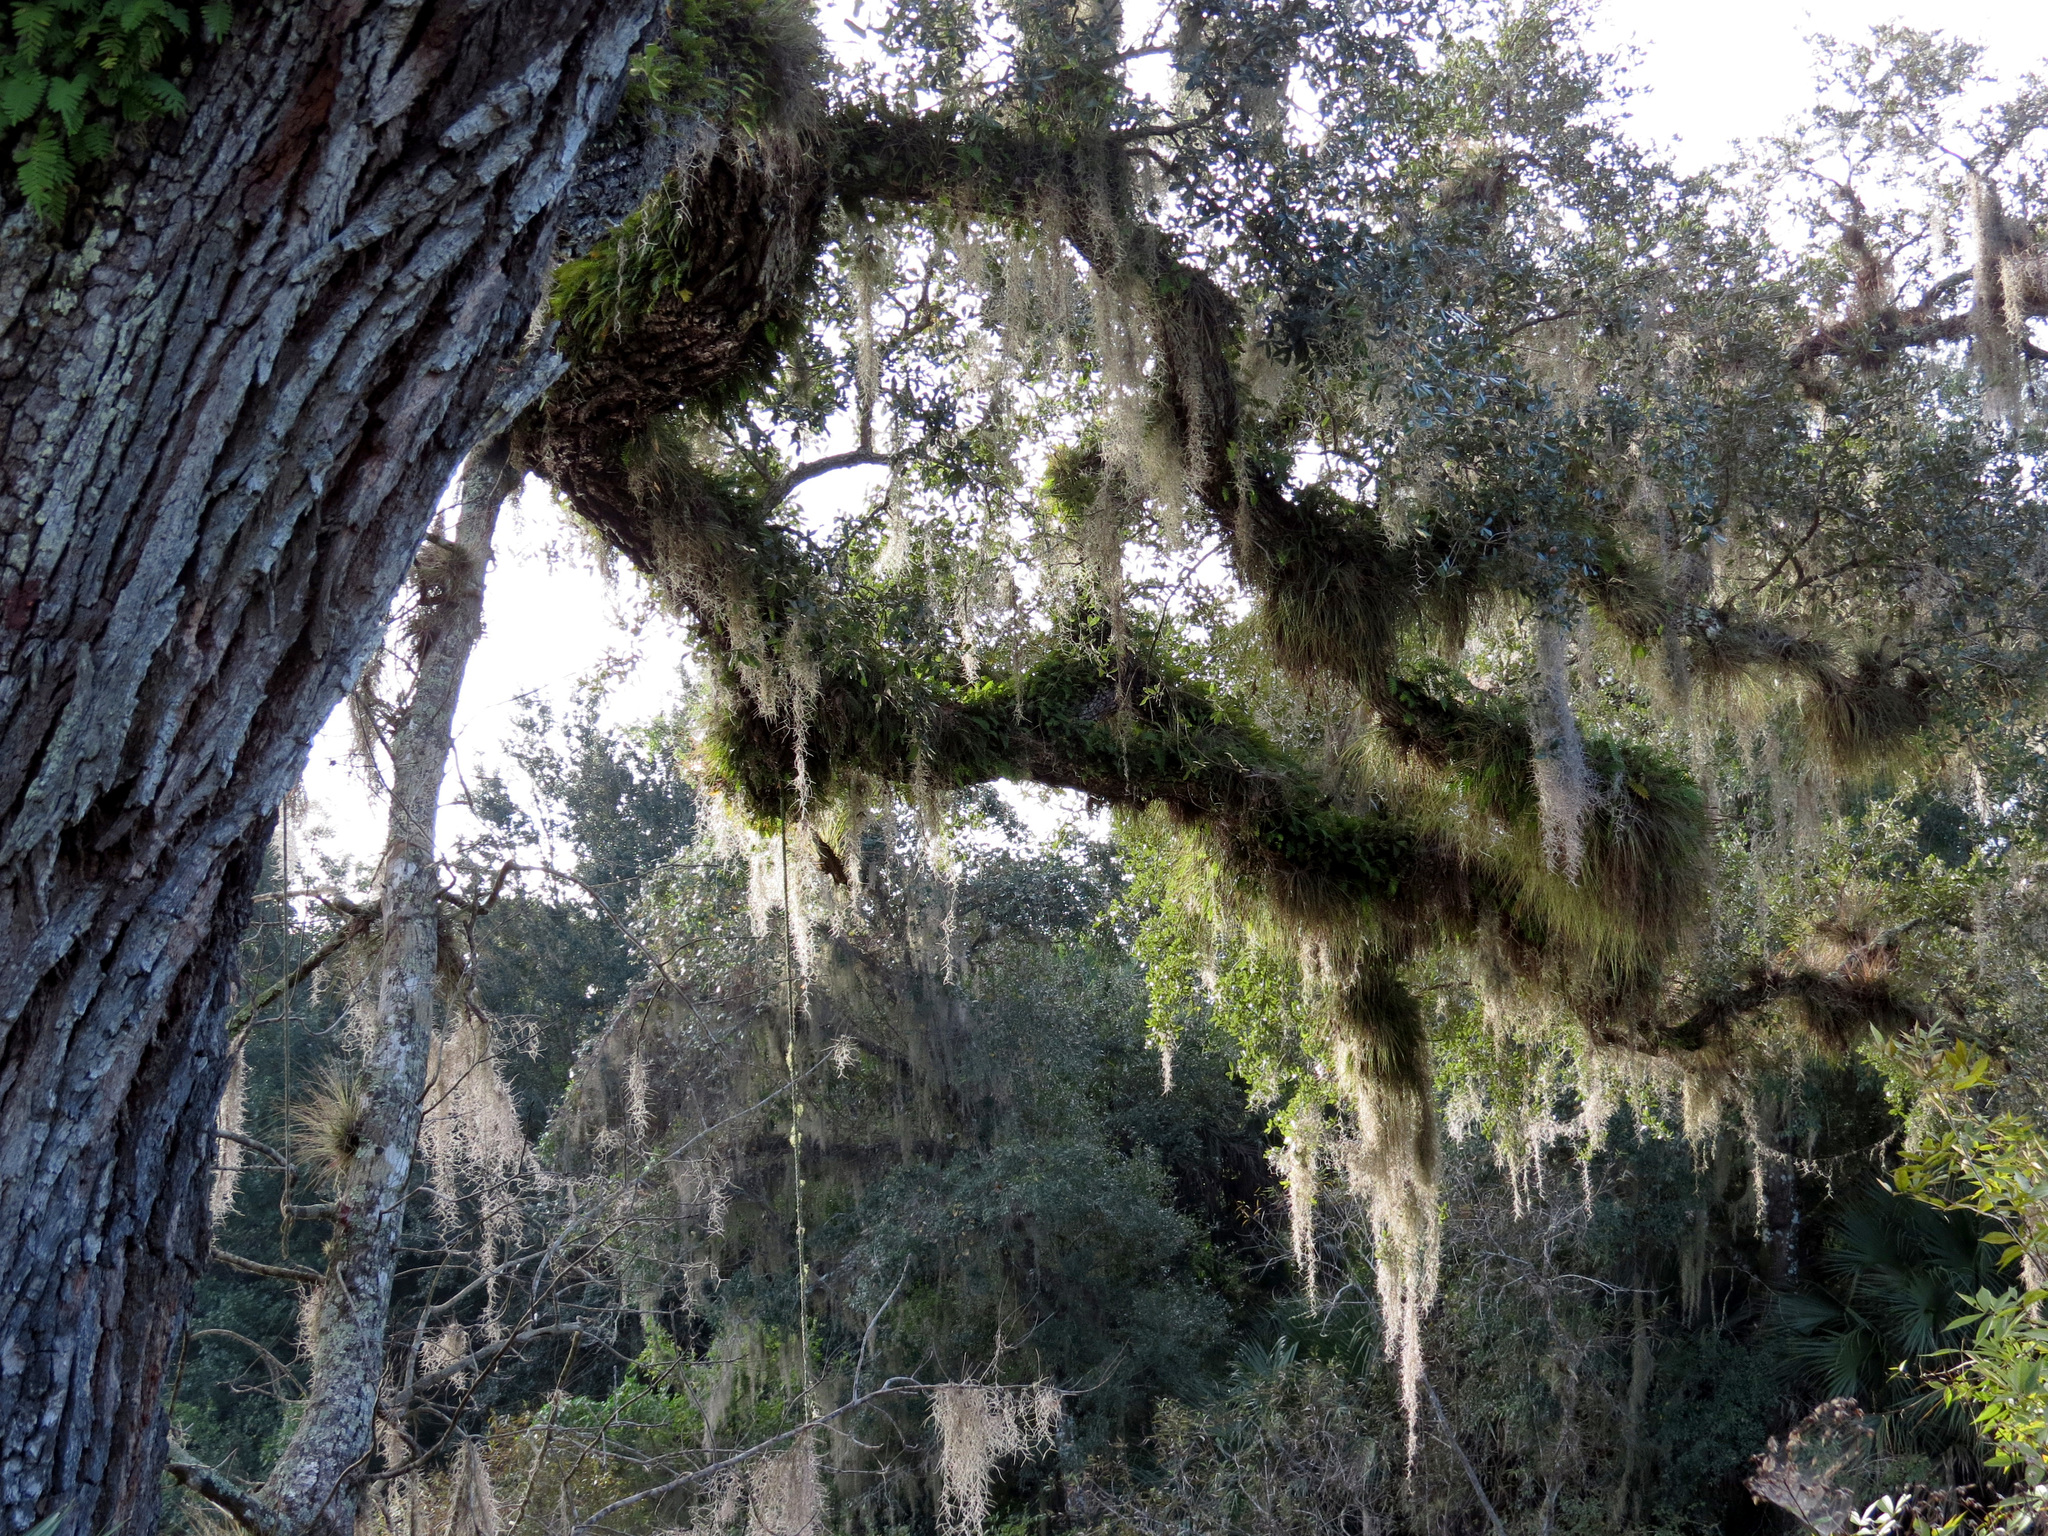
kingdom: Plantae
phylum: Tracheophyta
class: Magnoliopsida
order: Fagales
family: Fagaceae
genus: Quercus
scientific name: Quercus virginiana
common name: Southern live oak
